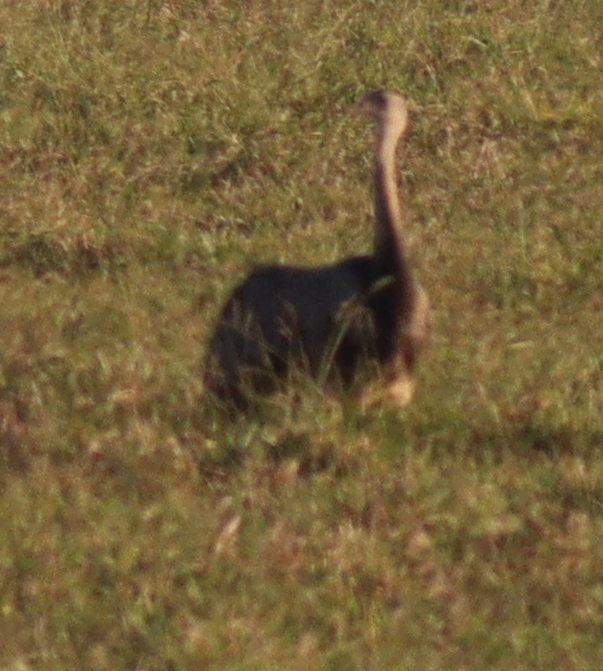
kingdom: Animalia
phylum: Chordata
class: Aves
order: Rheiformes
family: Rheidae
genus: Rhea
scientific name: Rhea americana
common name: Greater rhea
